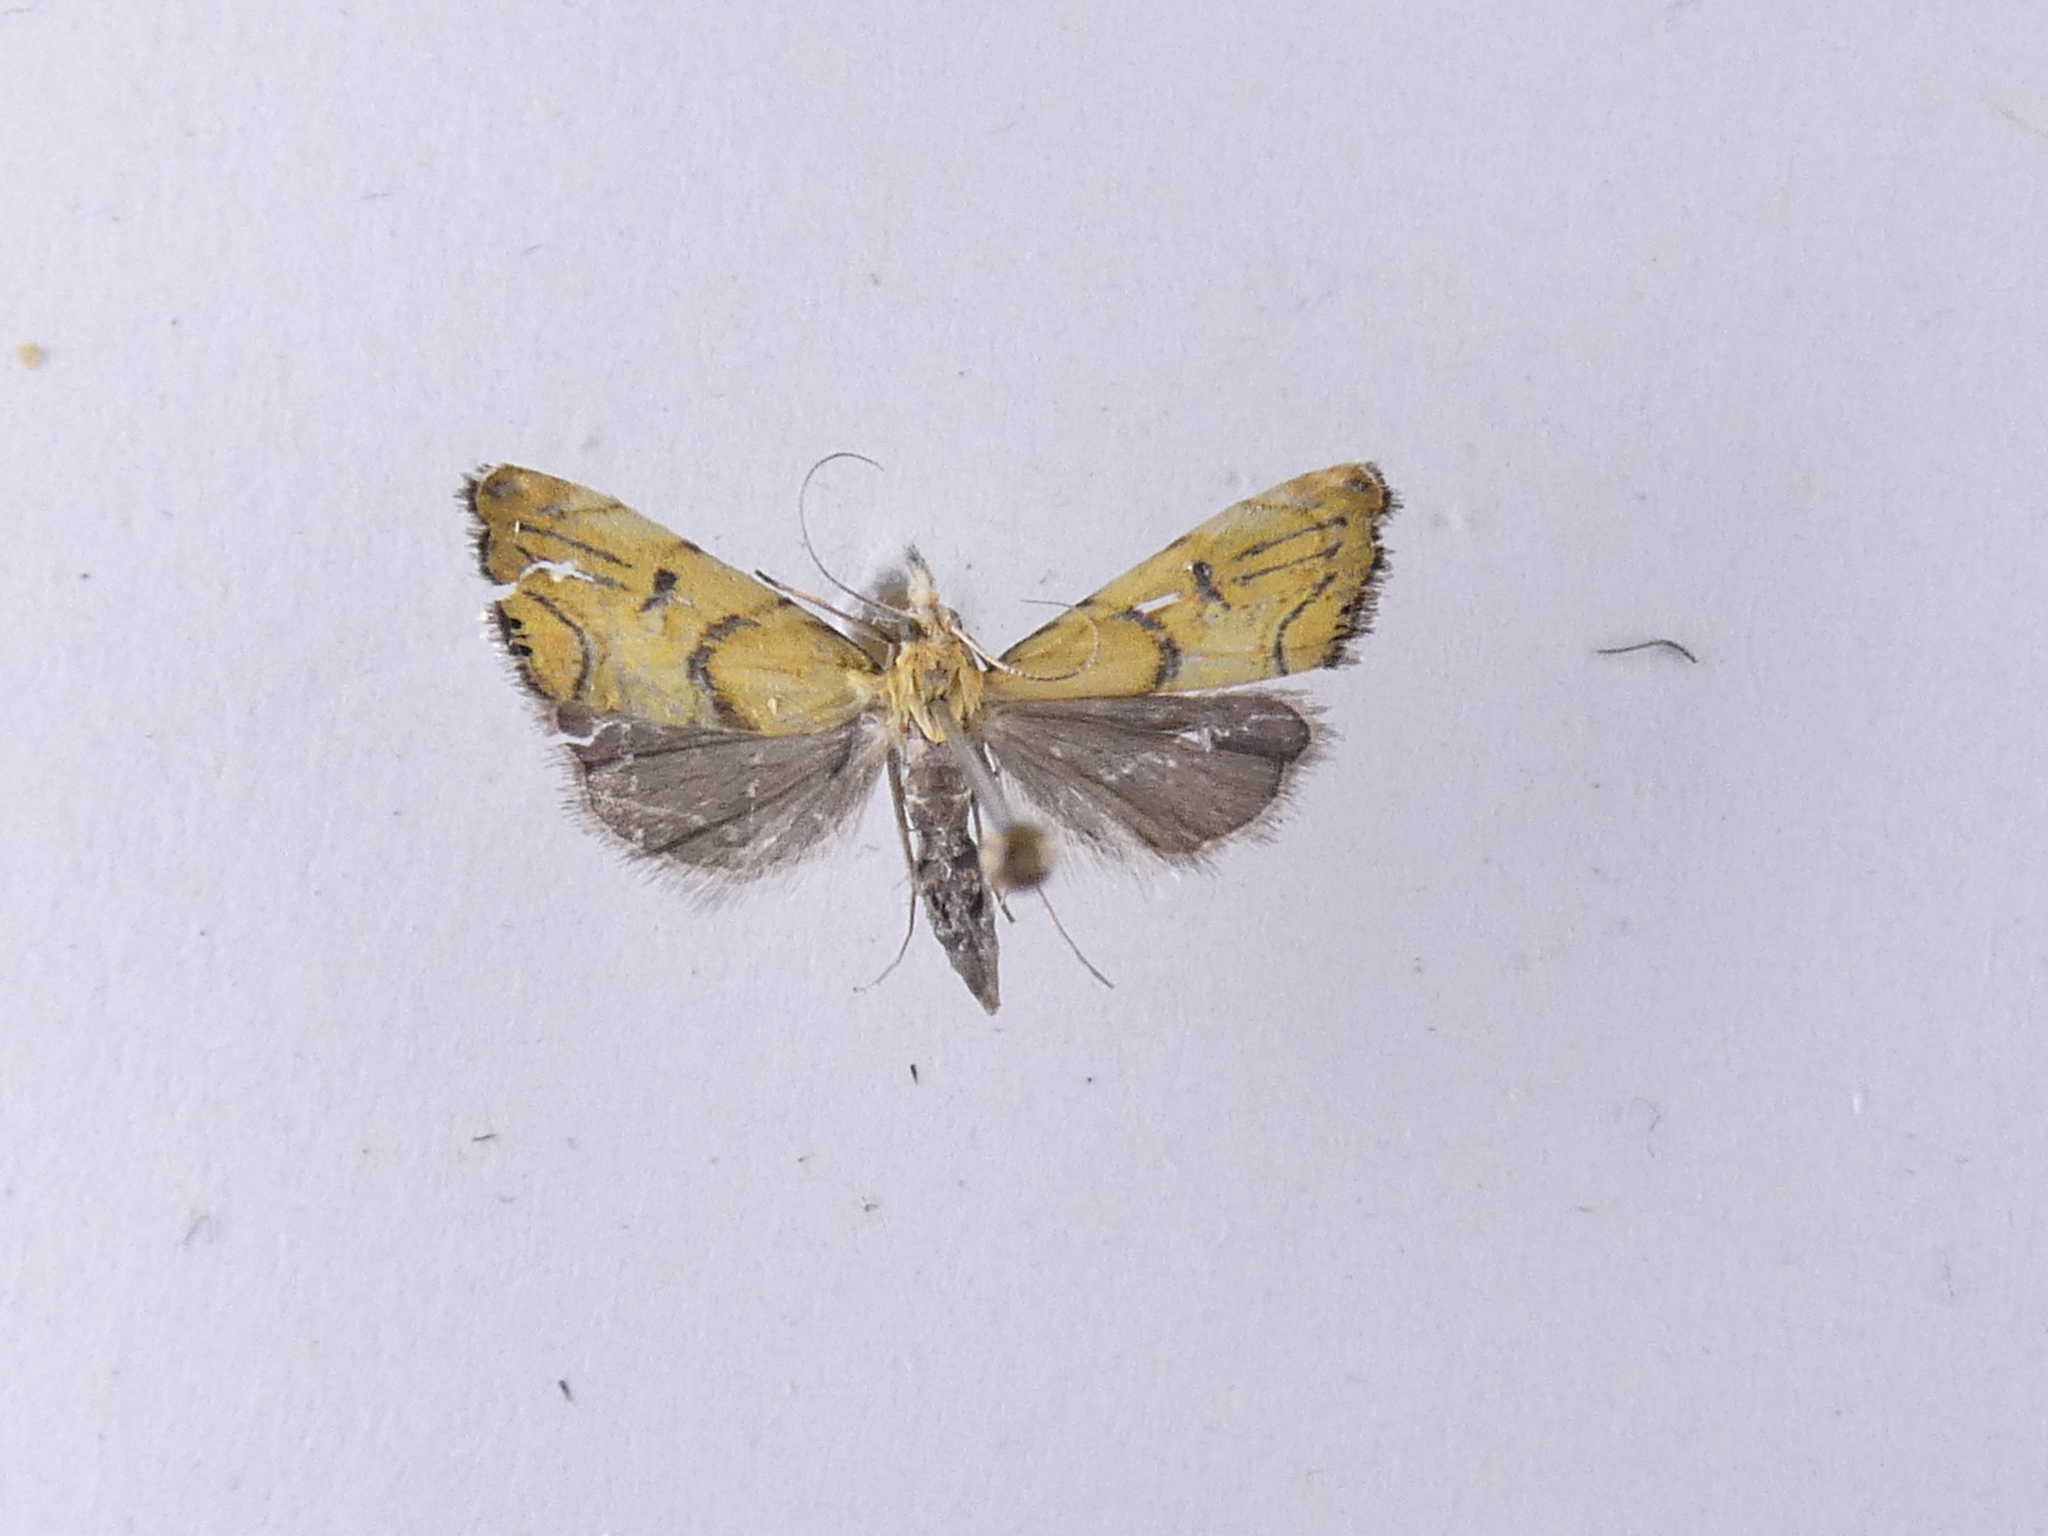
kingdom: Animalia
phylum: Arthropoda
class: Insecta
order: Lepidoptera
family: Crambidae
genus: Glaucocharis
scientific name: Glaucocharis auriscriptella
